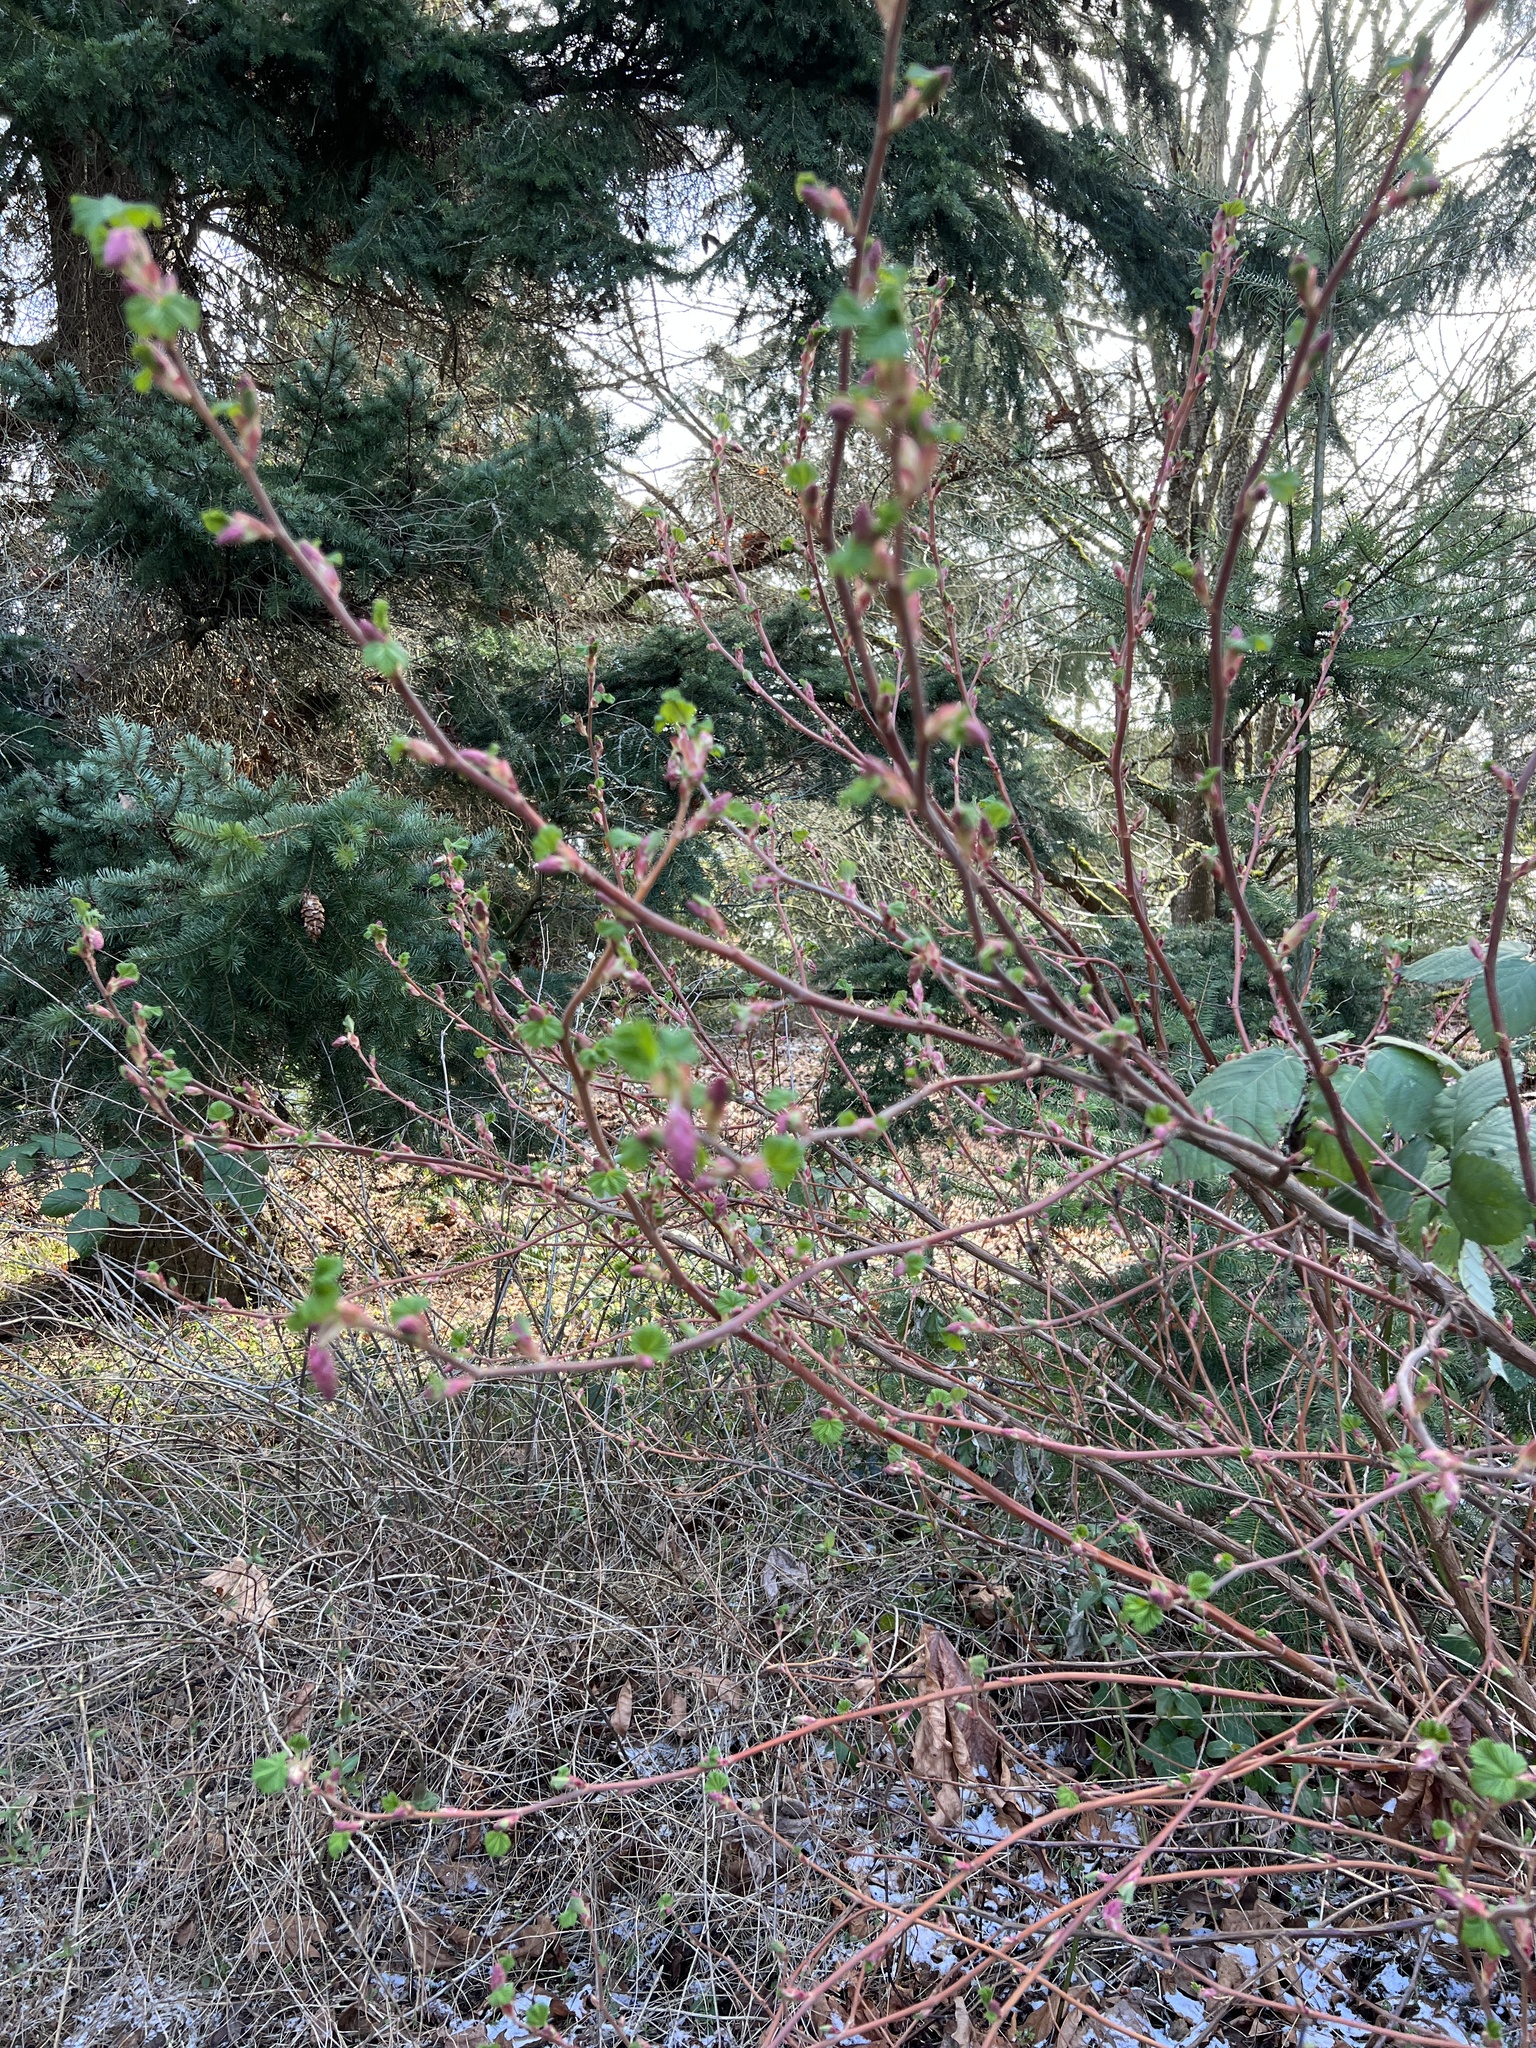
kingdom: Plantae
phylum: Tracheophyta
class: Magnoliopsida
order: Saxifragales
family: Grossulariaceae
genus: Ribes
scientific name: Ribes sanguineum
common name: Flowering currant
